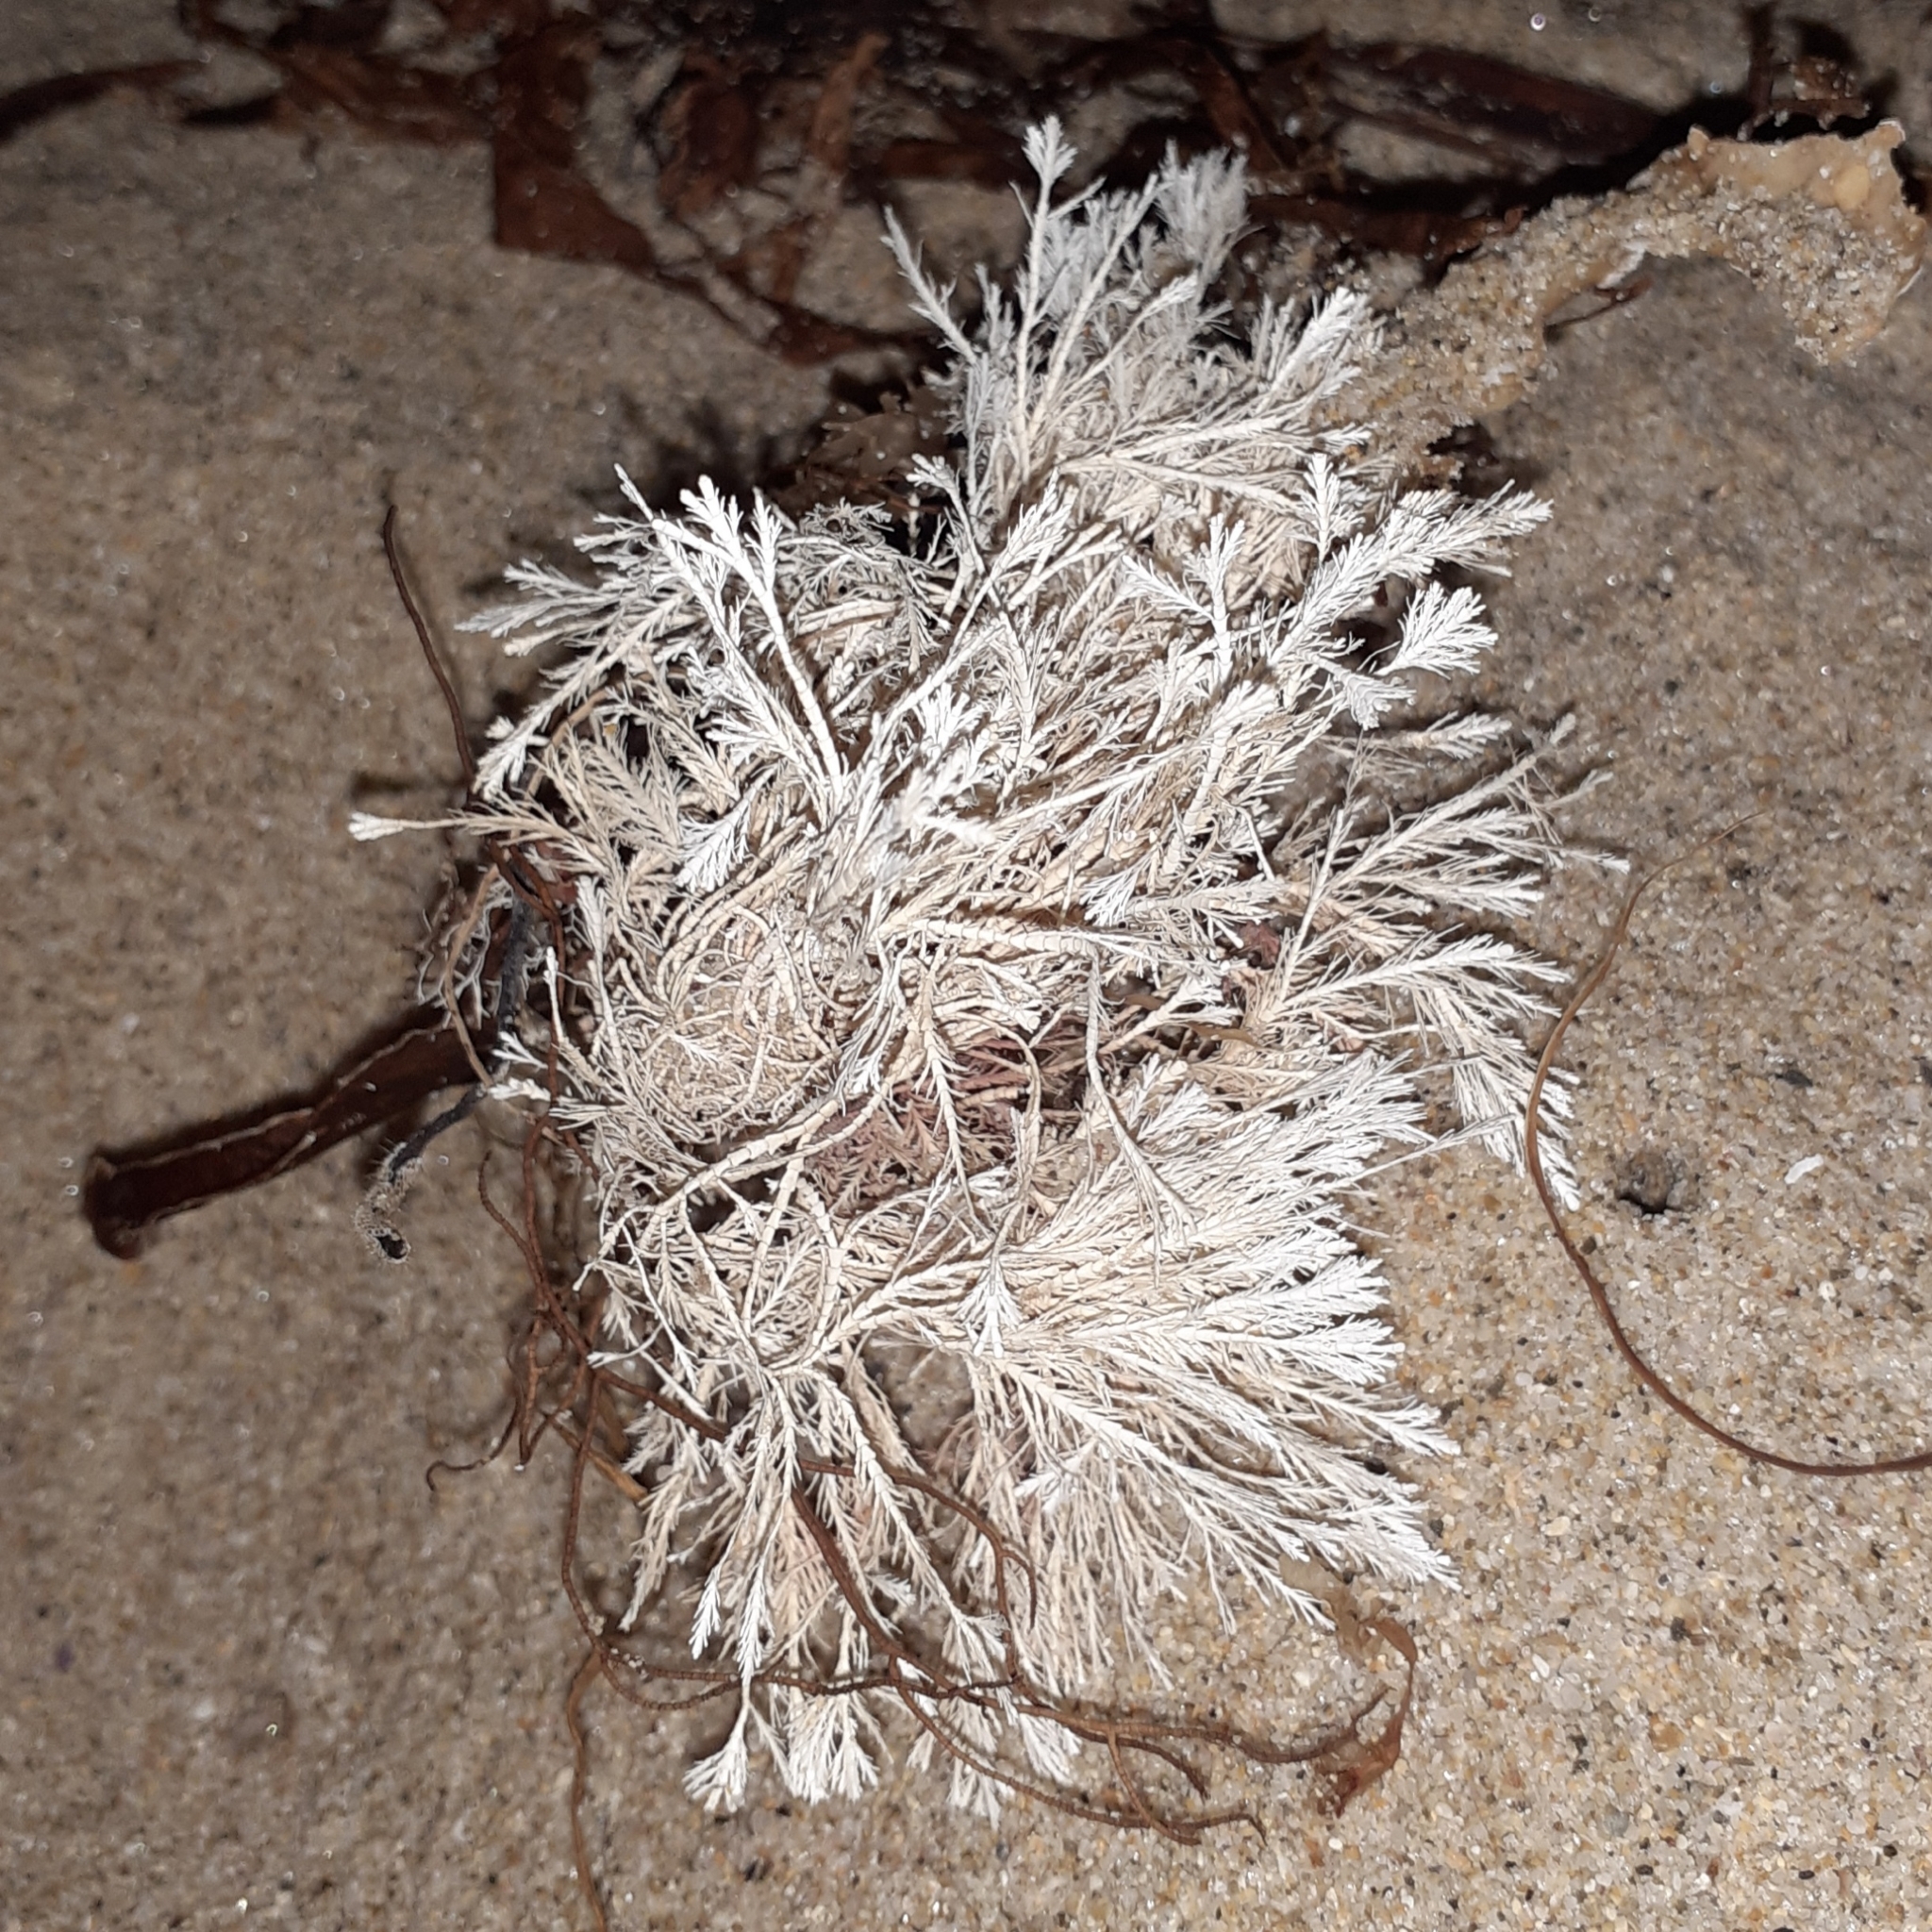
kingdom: Plantae
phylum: Rhodophyta
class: Florideophyceae
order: Corallinales
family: Corallinaceae
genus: Corallina
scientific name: Corallina officinalis
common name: Coral weed
